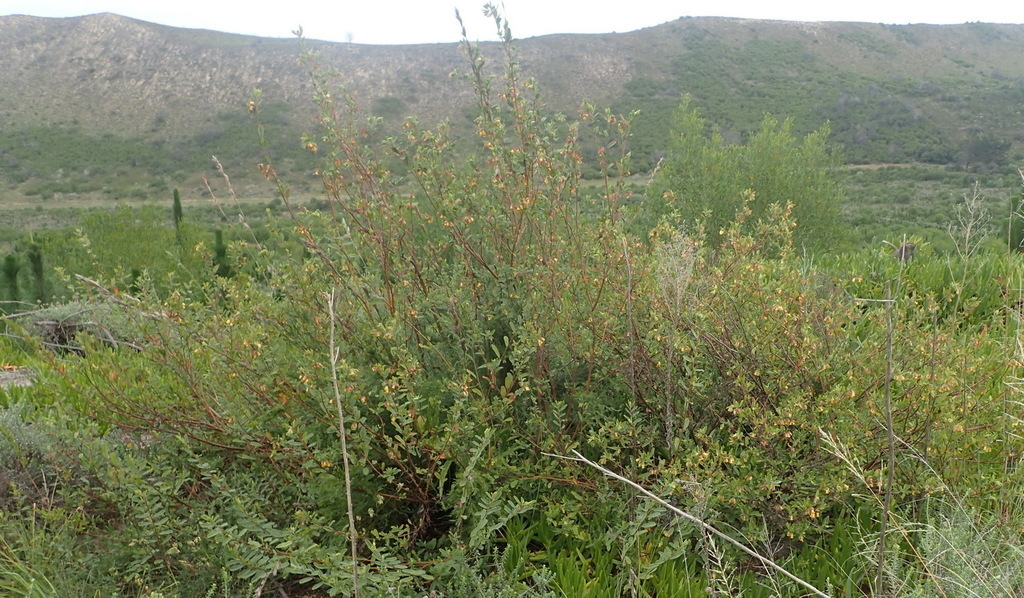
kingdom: Plantae
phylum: Tracheophyta
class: Magnoliopsida
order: Malvales
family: Malvaceae
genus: Hermannia
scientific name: Hermannia salviifolia
